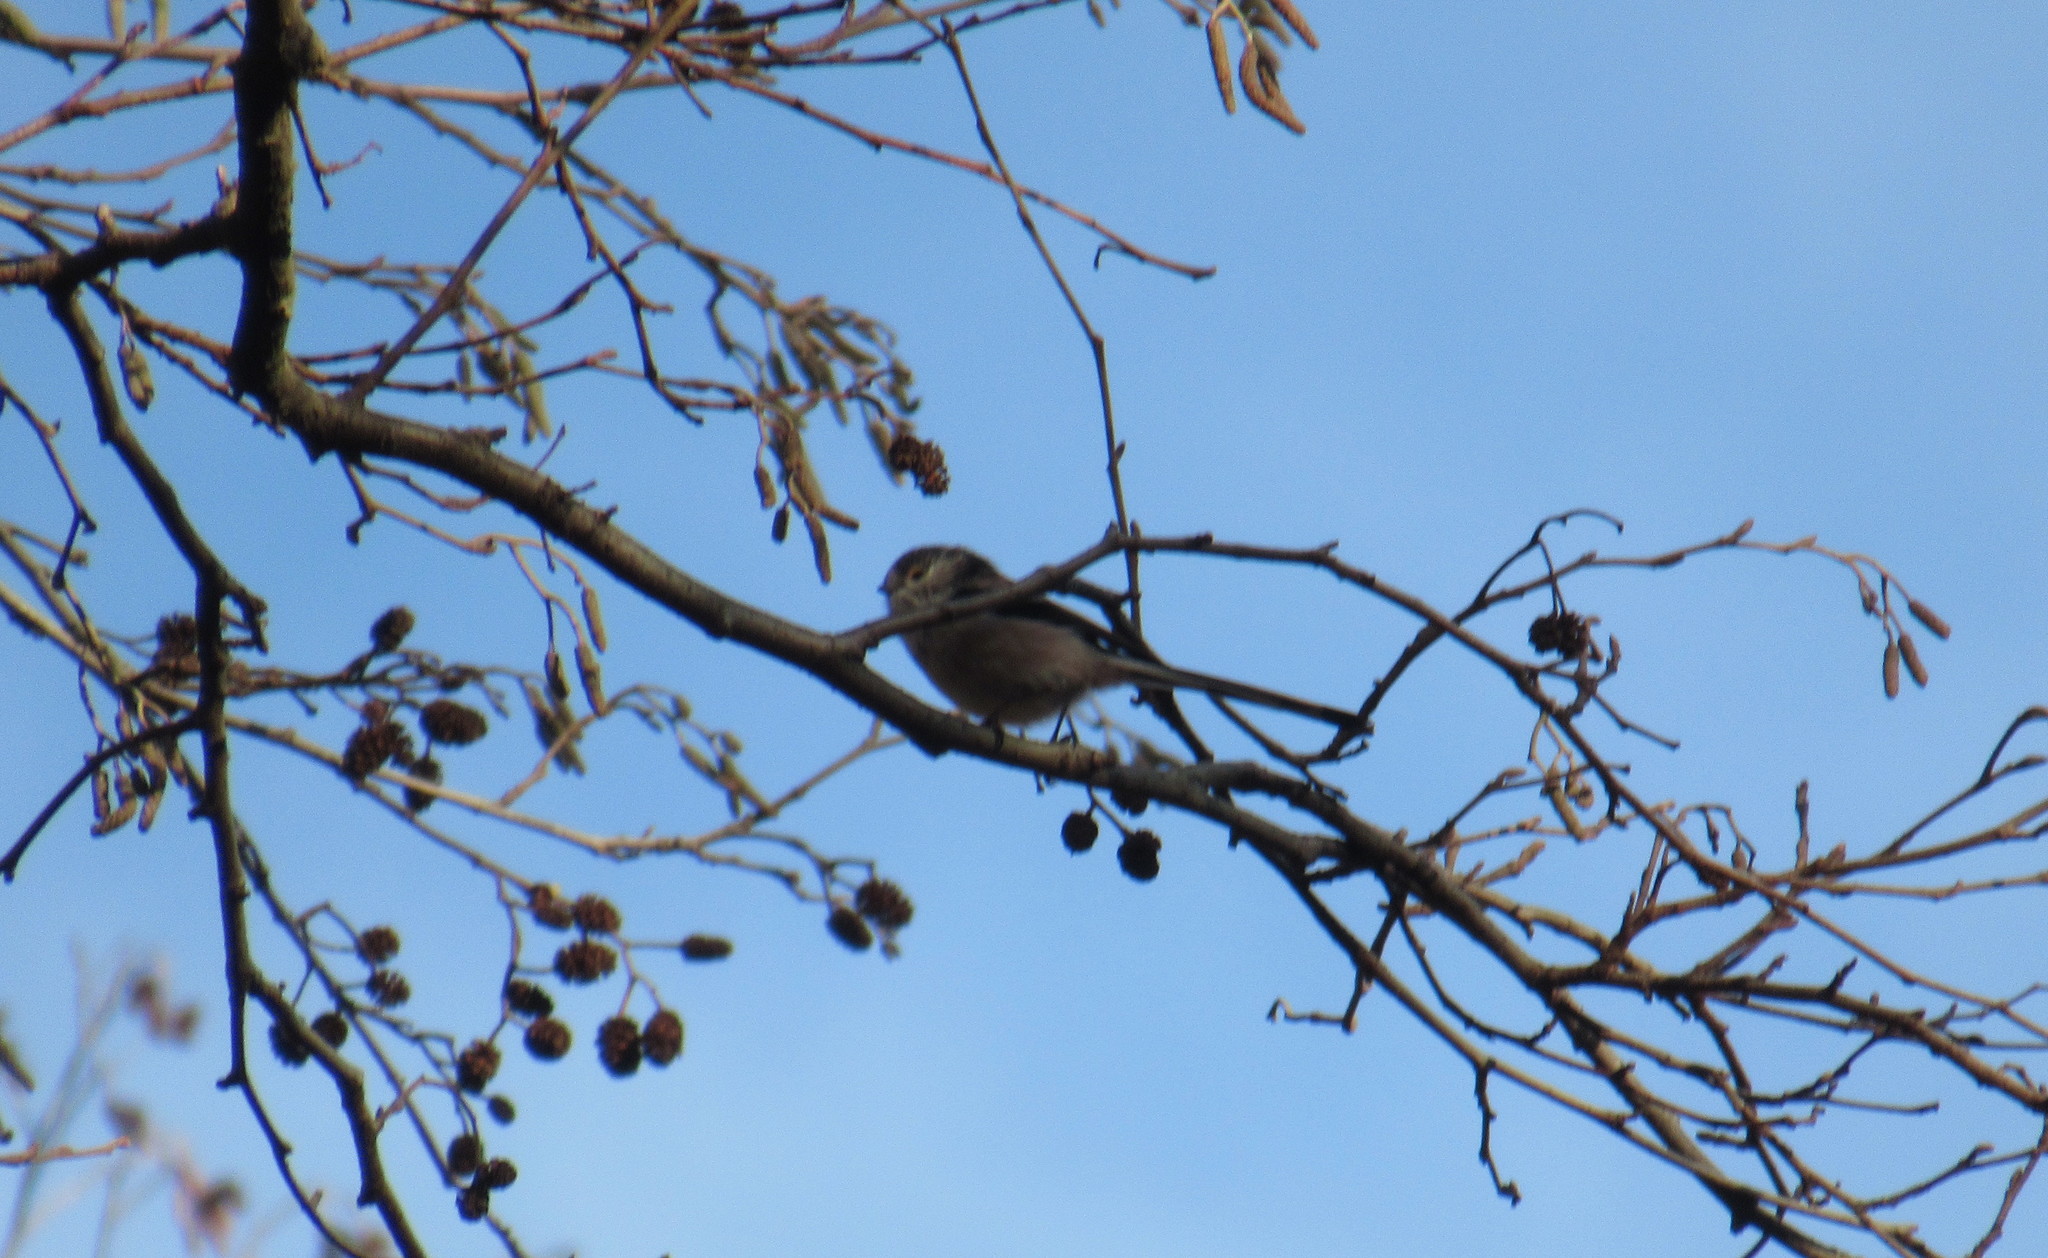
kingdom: Animalia
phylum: Chordata
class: Aves
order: Passeriformes
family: Aegithalidae
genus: Aegithalos
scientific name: Aegithalos caudatus
